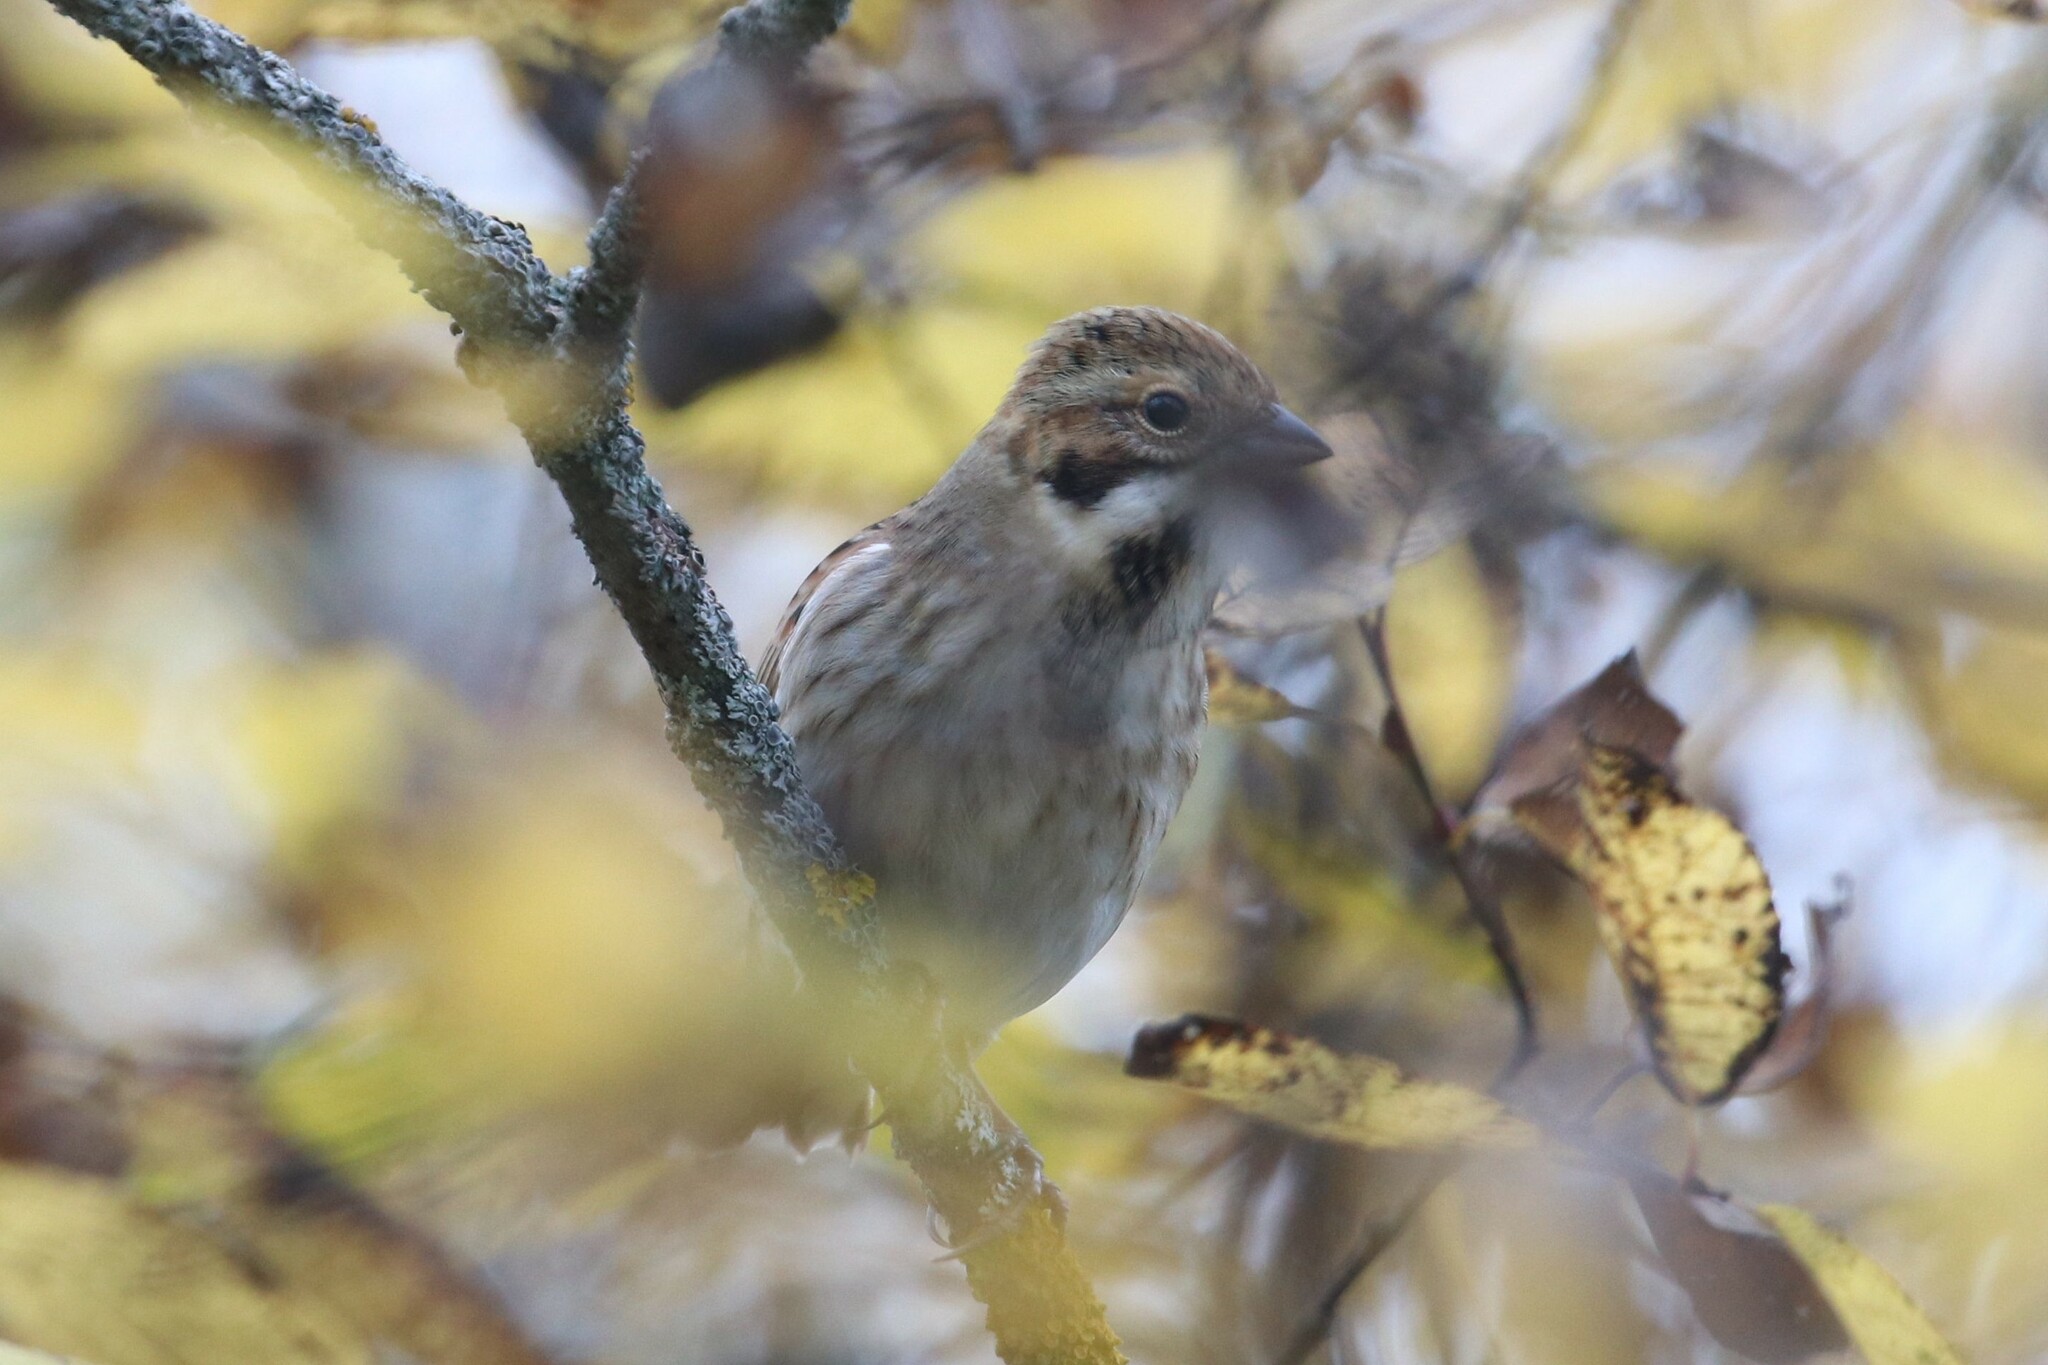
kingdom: Animalia
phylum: Chordata
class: Aves
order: Passeriformes
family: Emberizidae
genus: Emberiza
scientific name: Emberiza schoeniclus
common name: Reed bunting
